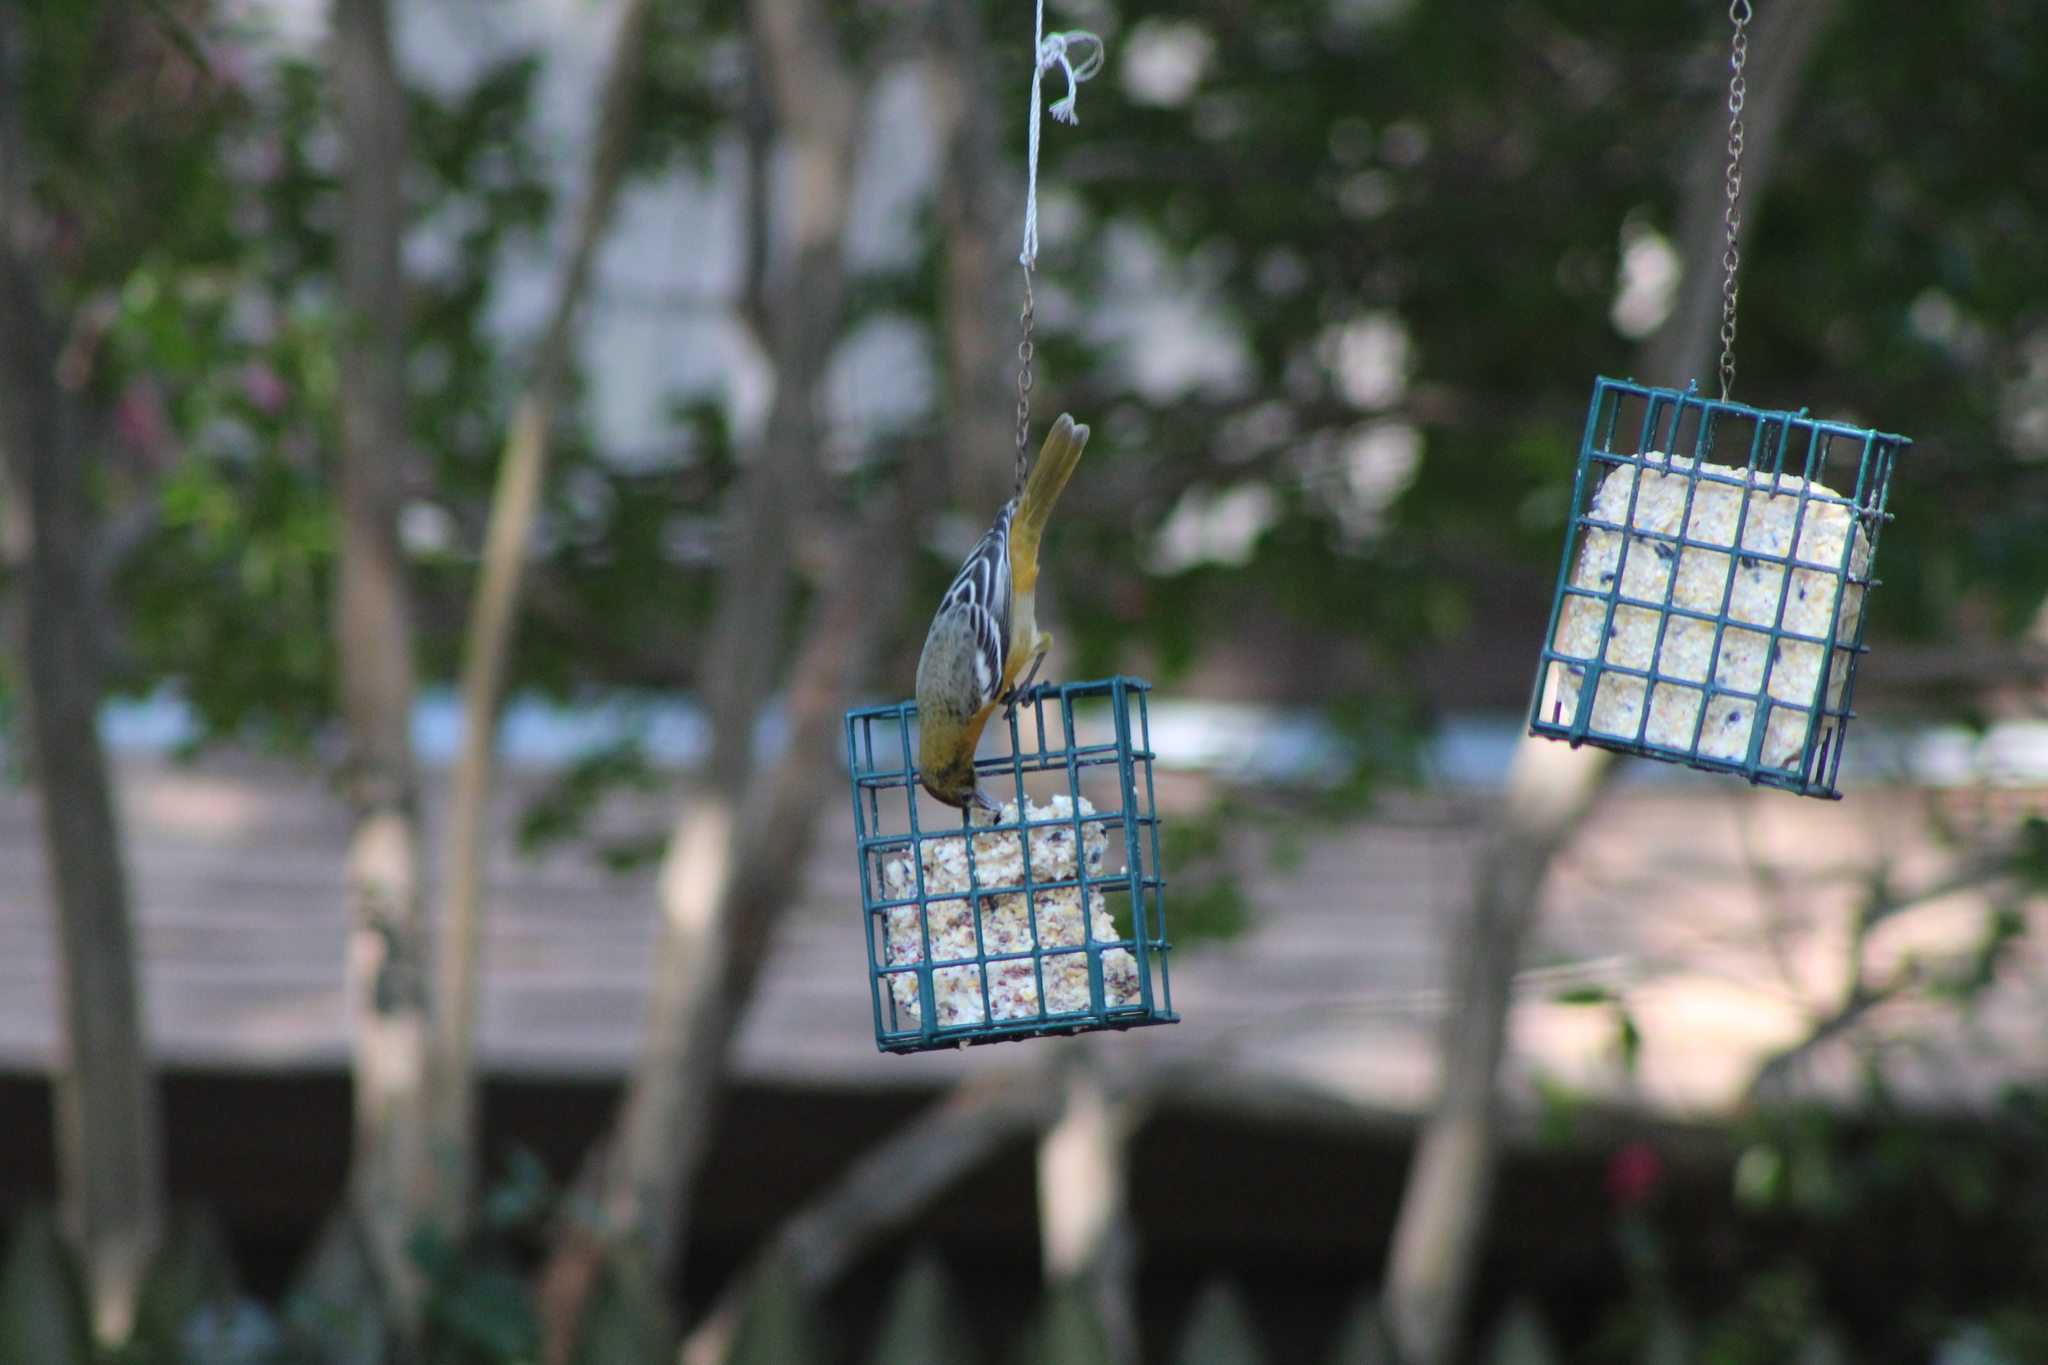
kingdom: Animalia
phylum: Chordata
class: Aves
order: Passeriformes
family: Icteridae
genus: Icterus
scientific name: Icterus galbula
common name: Baltimore oriole
